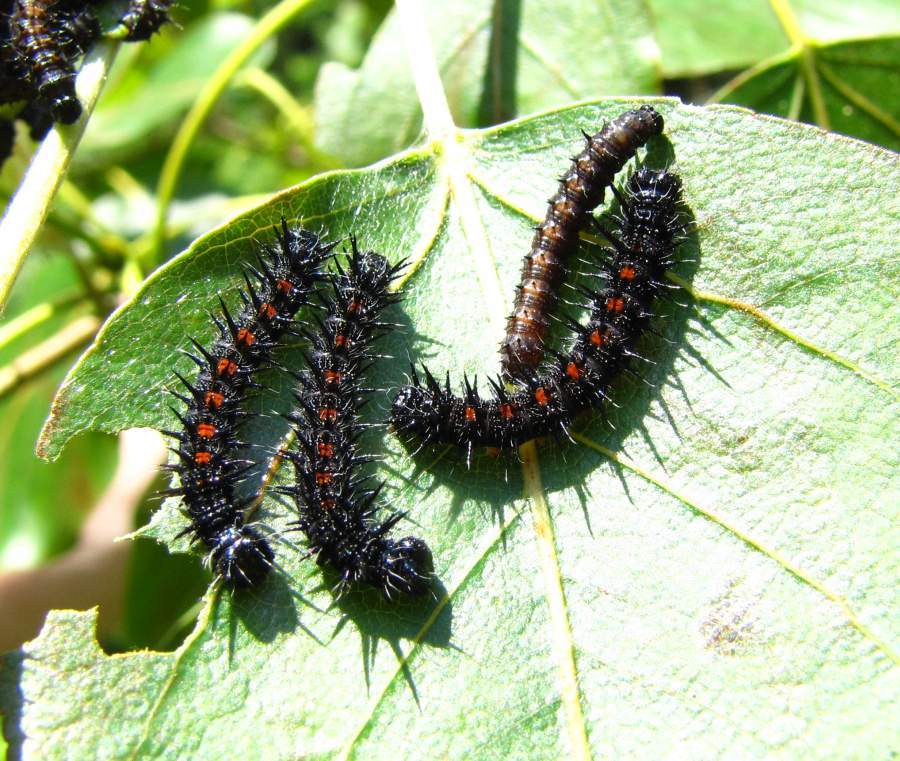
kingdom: Animalia
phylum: Arthropoda
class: Insecta
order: Lepidoptera
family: Nymphalidae
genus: Nymphalis
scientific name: Nymphalis antiopa
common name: Camberwell beauty
